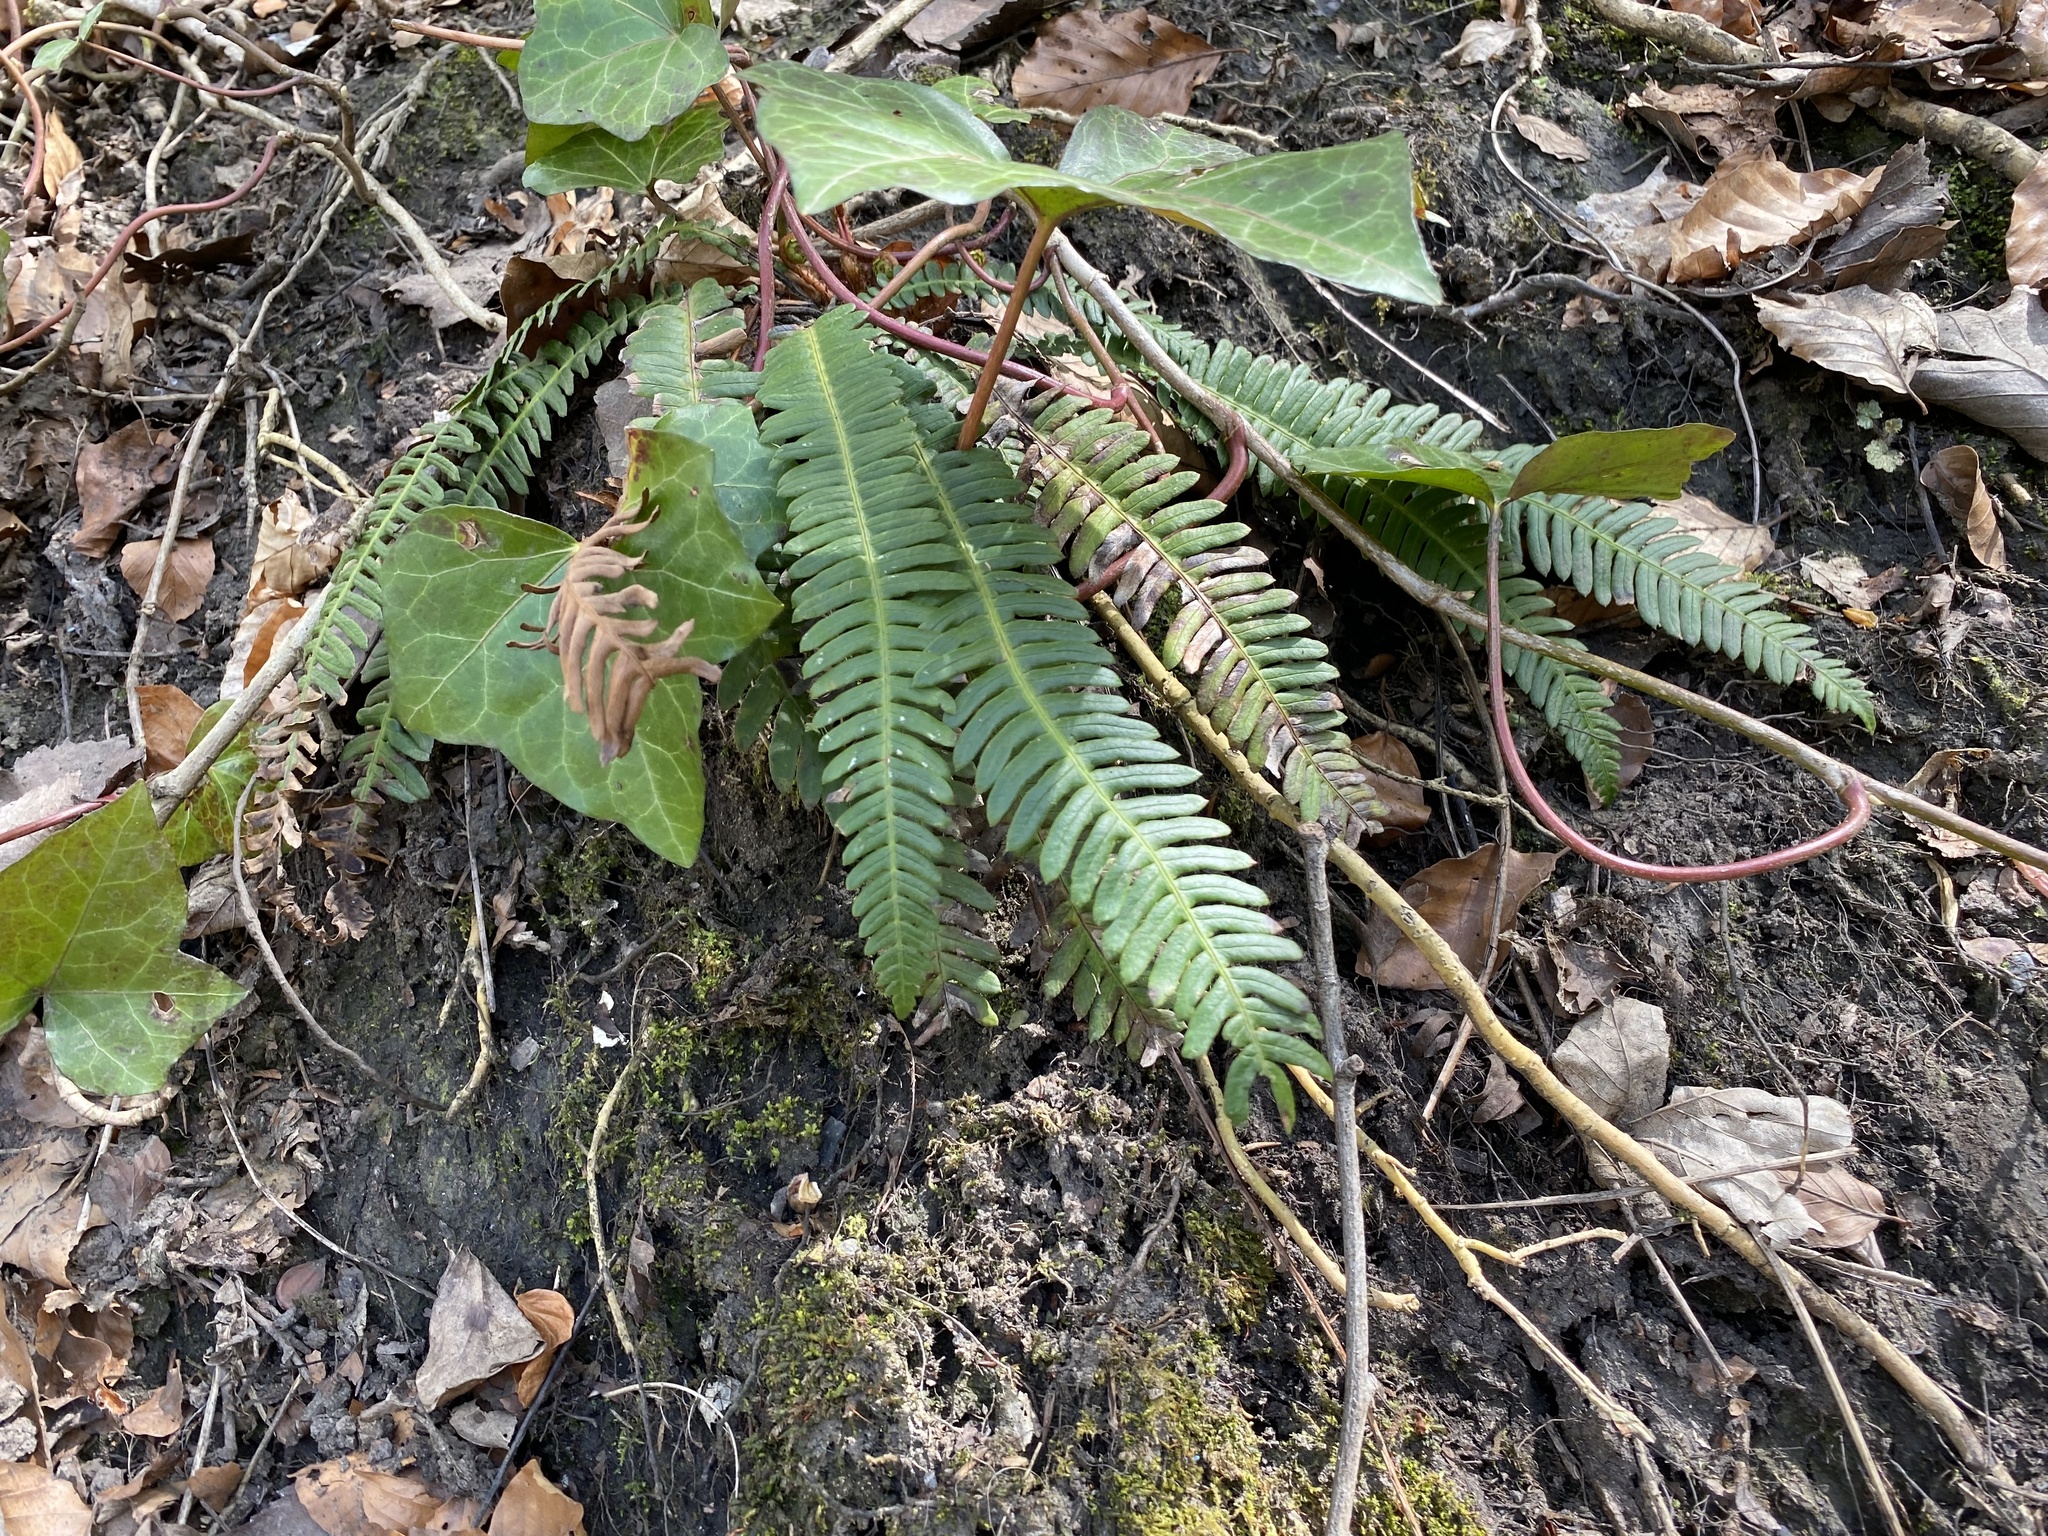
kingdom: Plantae
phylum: Tracheophyta
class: Polypodiopsida
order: Polypodiales
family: Blechnaceae
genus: Struthiopteris
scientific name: Struthiopteris spicant
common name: Deer fern
